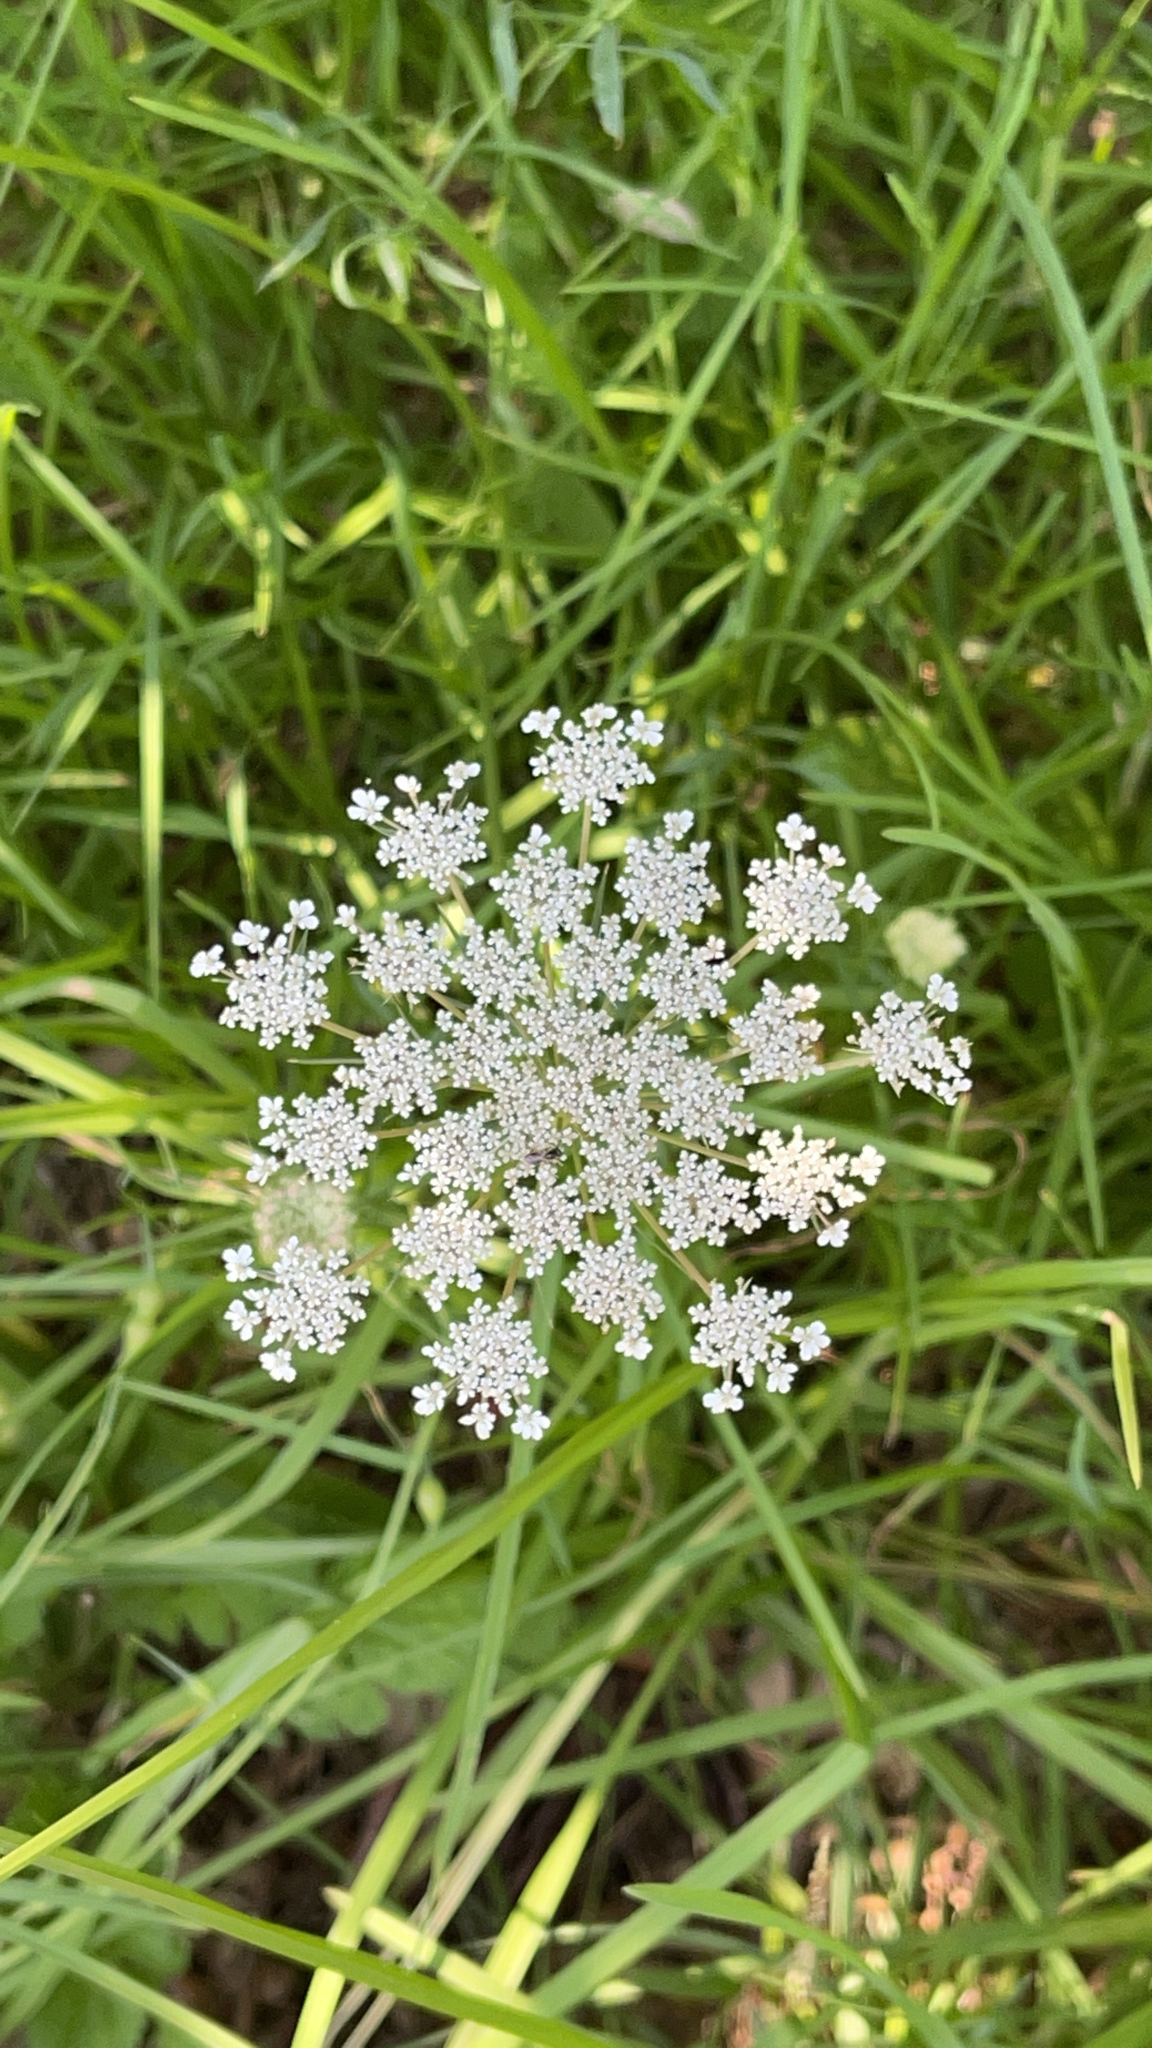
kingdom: Plantae
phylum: Tracheophyta
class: Magnoliopsida
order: Apiales
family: Apiaceae
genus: Daucus
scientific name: Daucus carota
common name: Wild carrot
